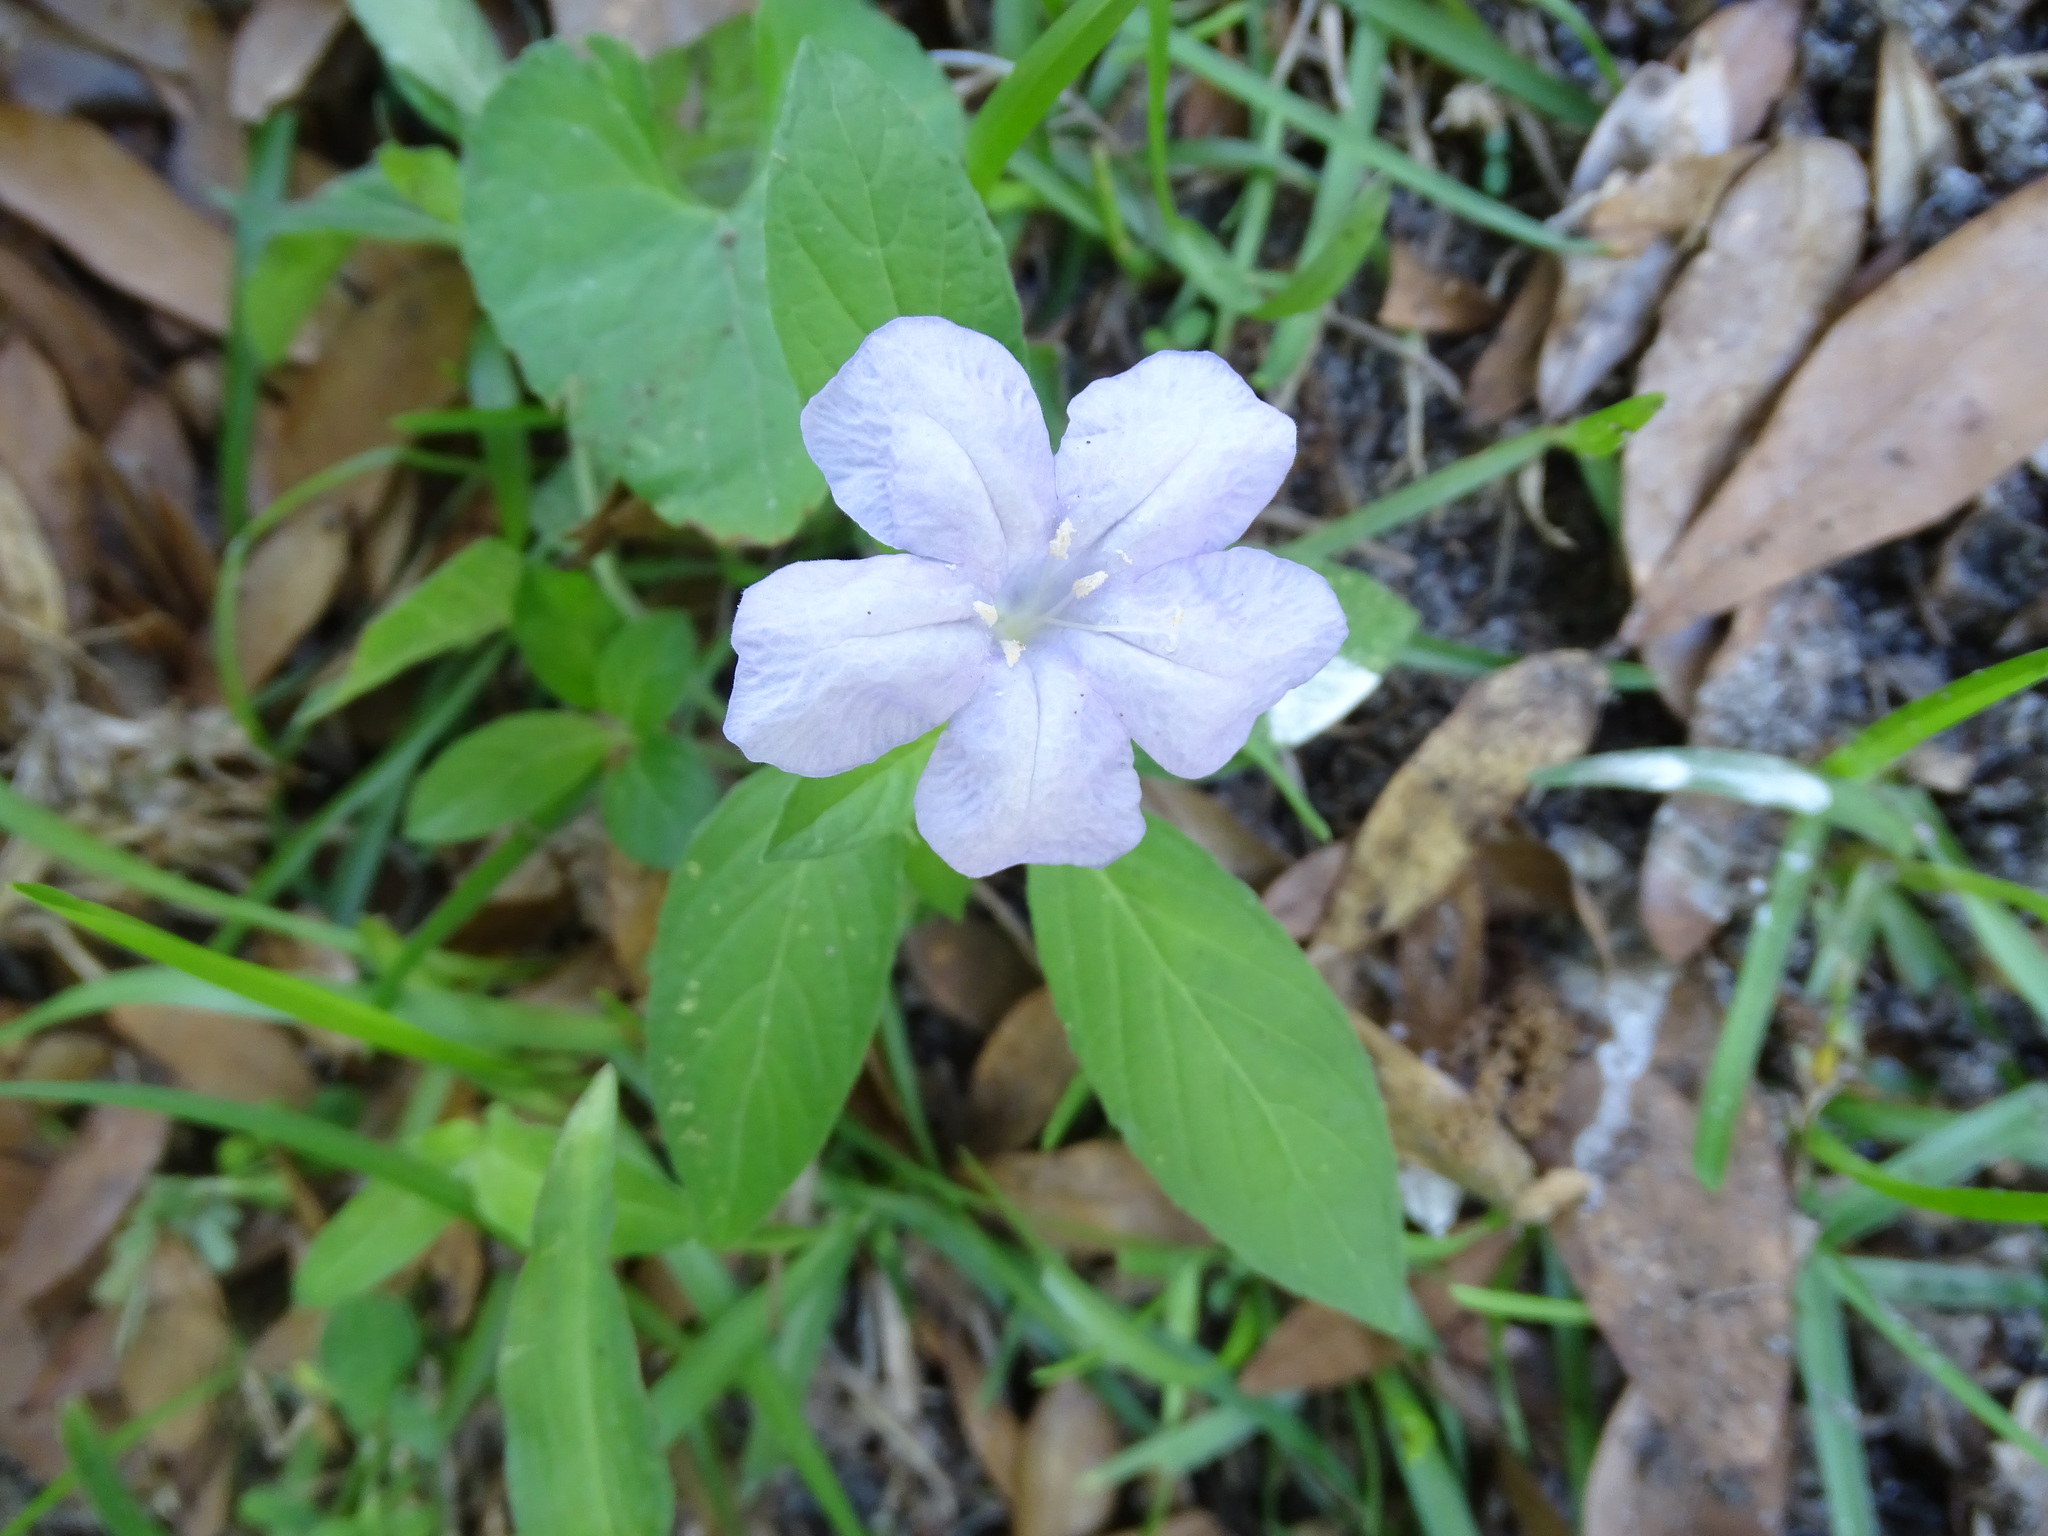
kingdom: Plantae
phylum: Tracheophyta
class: Magnoliopsida
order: Lamiales
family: Acanthaceae
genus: Ruellia
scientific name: Ruellia caroliniensis
